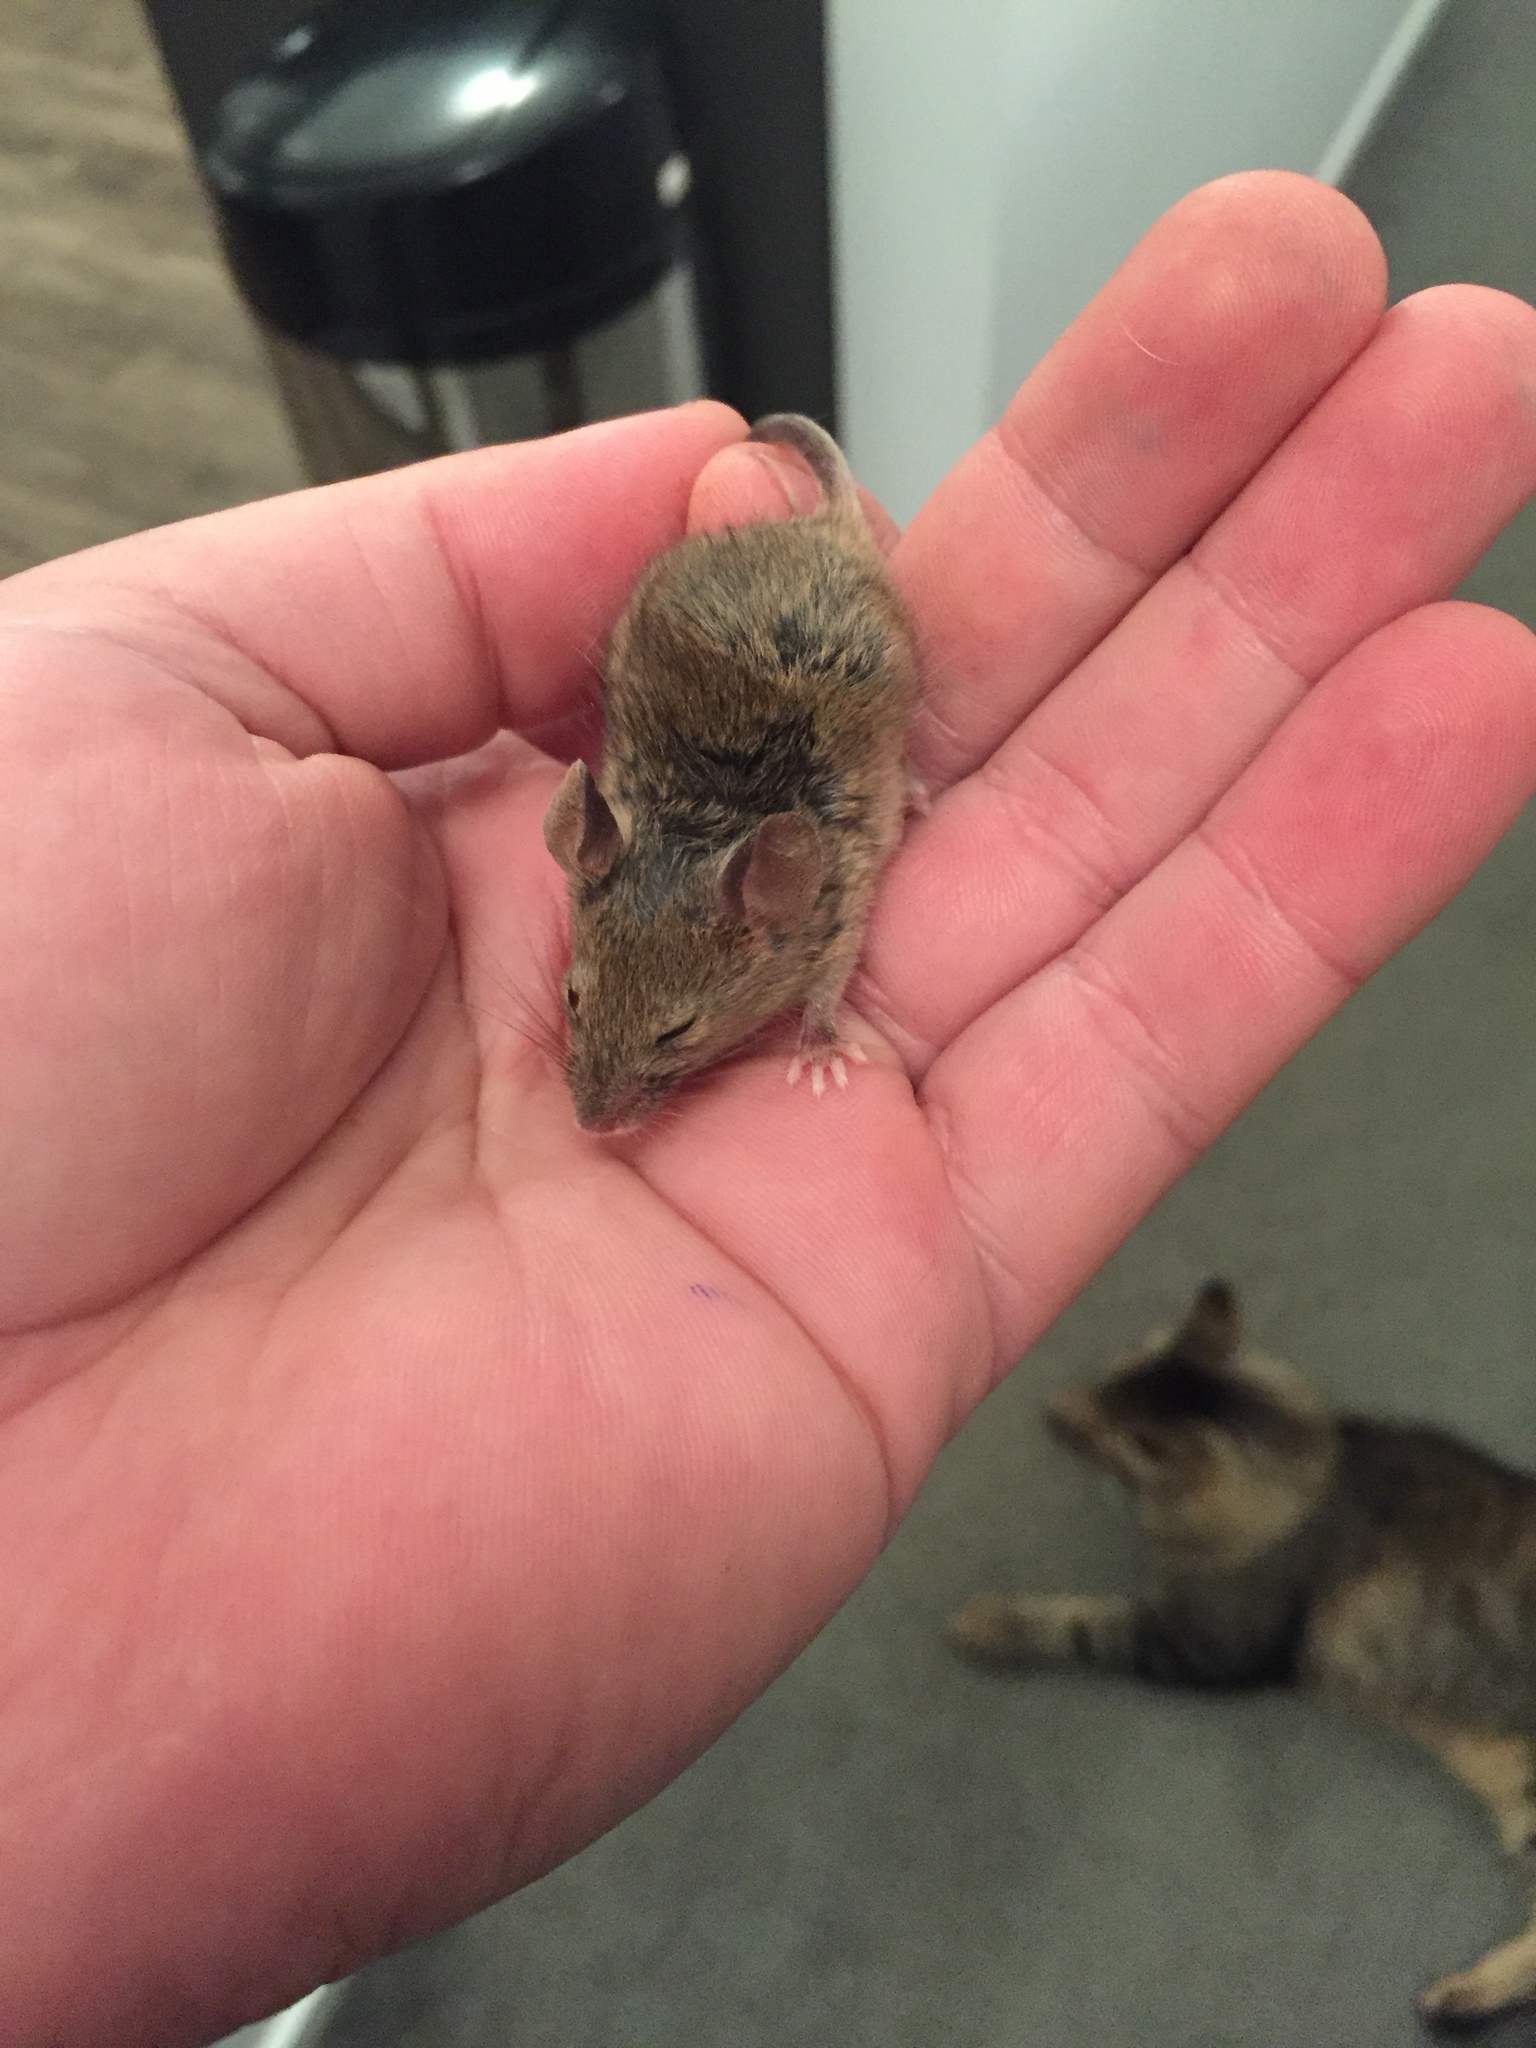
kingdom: Animalia
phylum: Chordata
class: Mammalia
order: Rodentia
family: Muridae
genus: Mus
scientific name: Mus musculus
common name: House mouse
